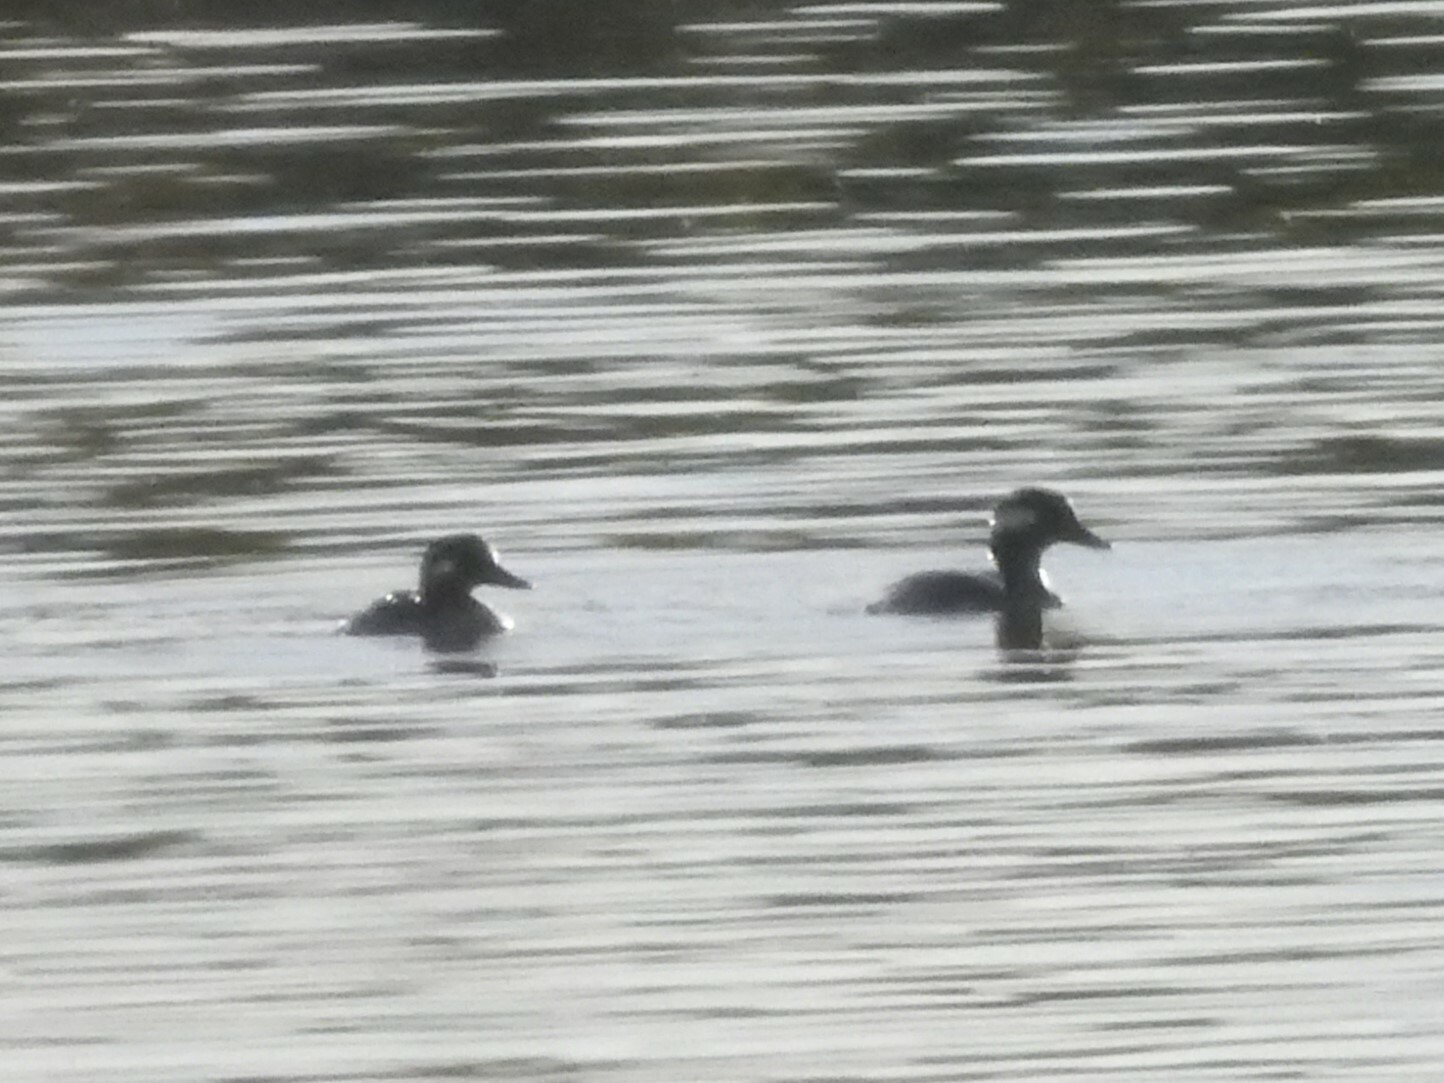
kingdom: Animalia
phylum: Chordata
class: Aves
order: Anseriformes
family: Anatidae
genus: Bucephala
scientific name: Bucephala albeola
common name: Bufflehead
